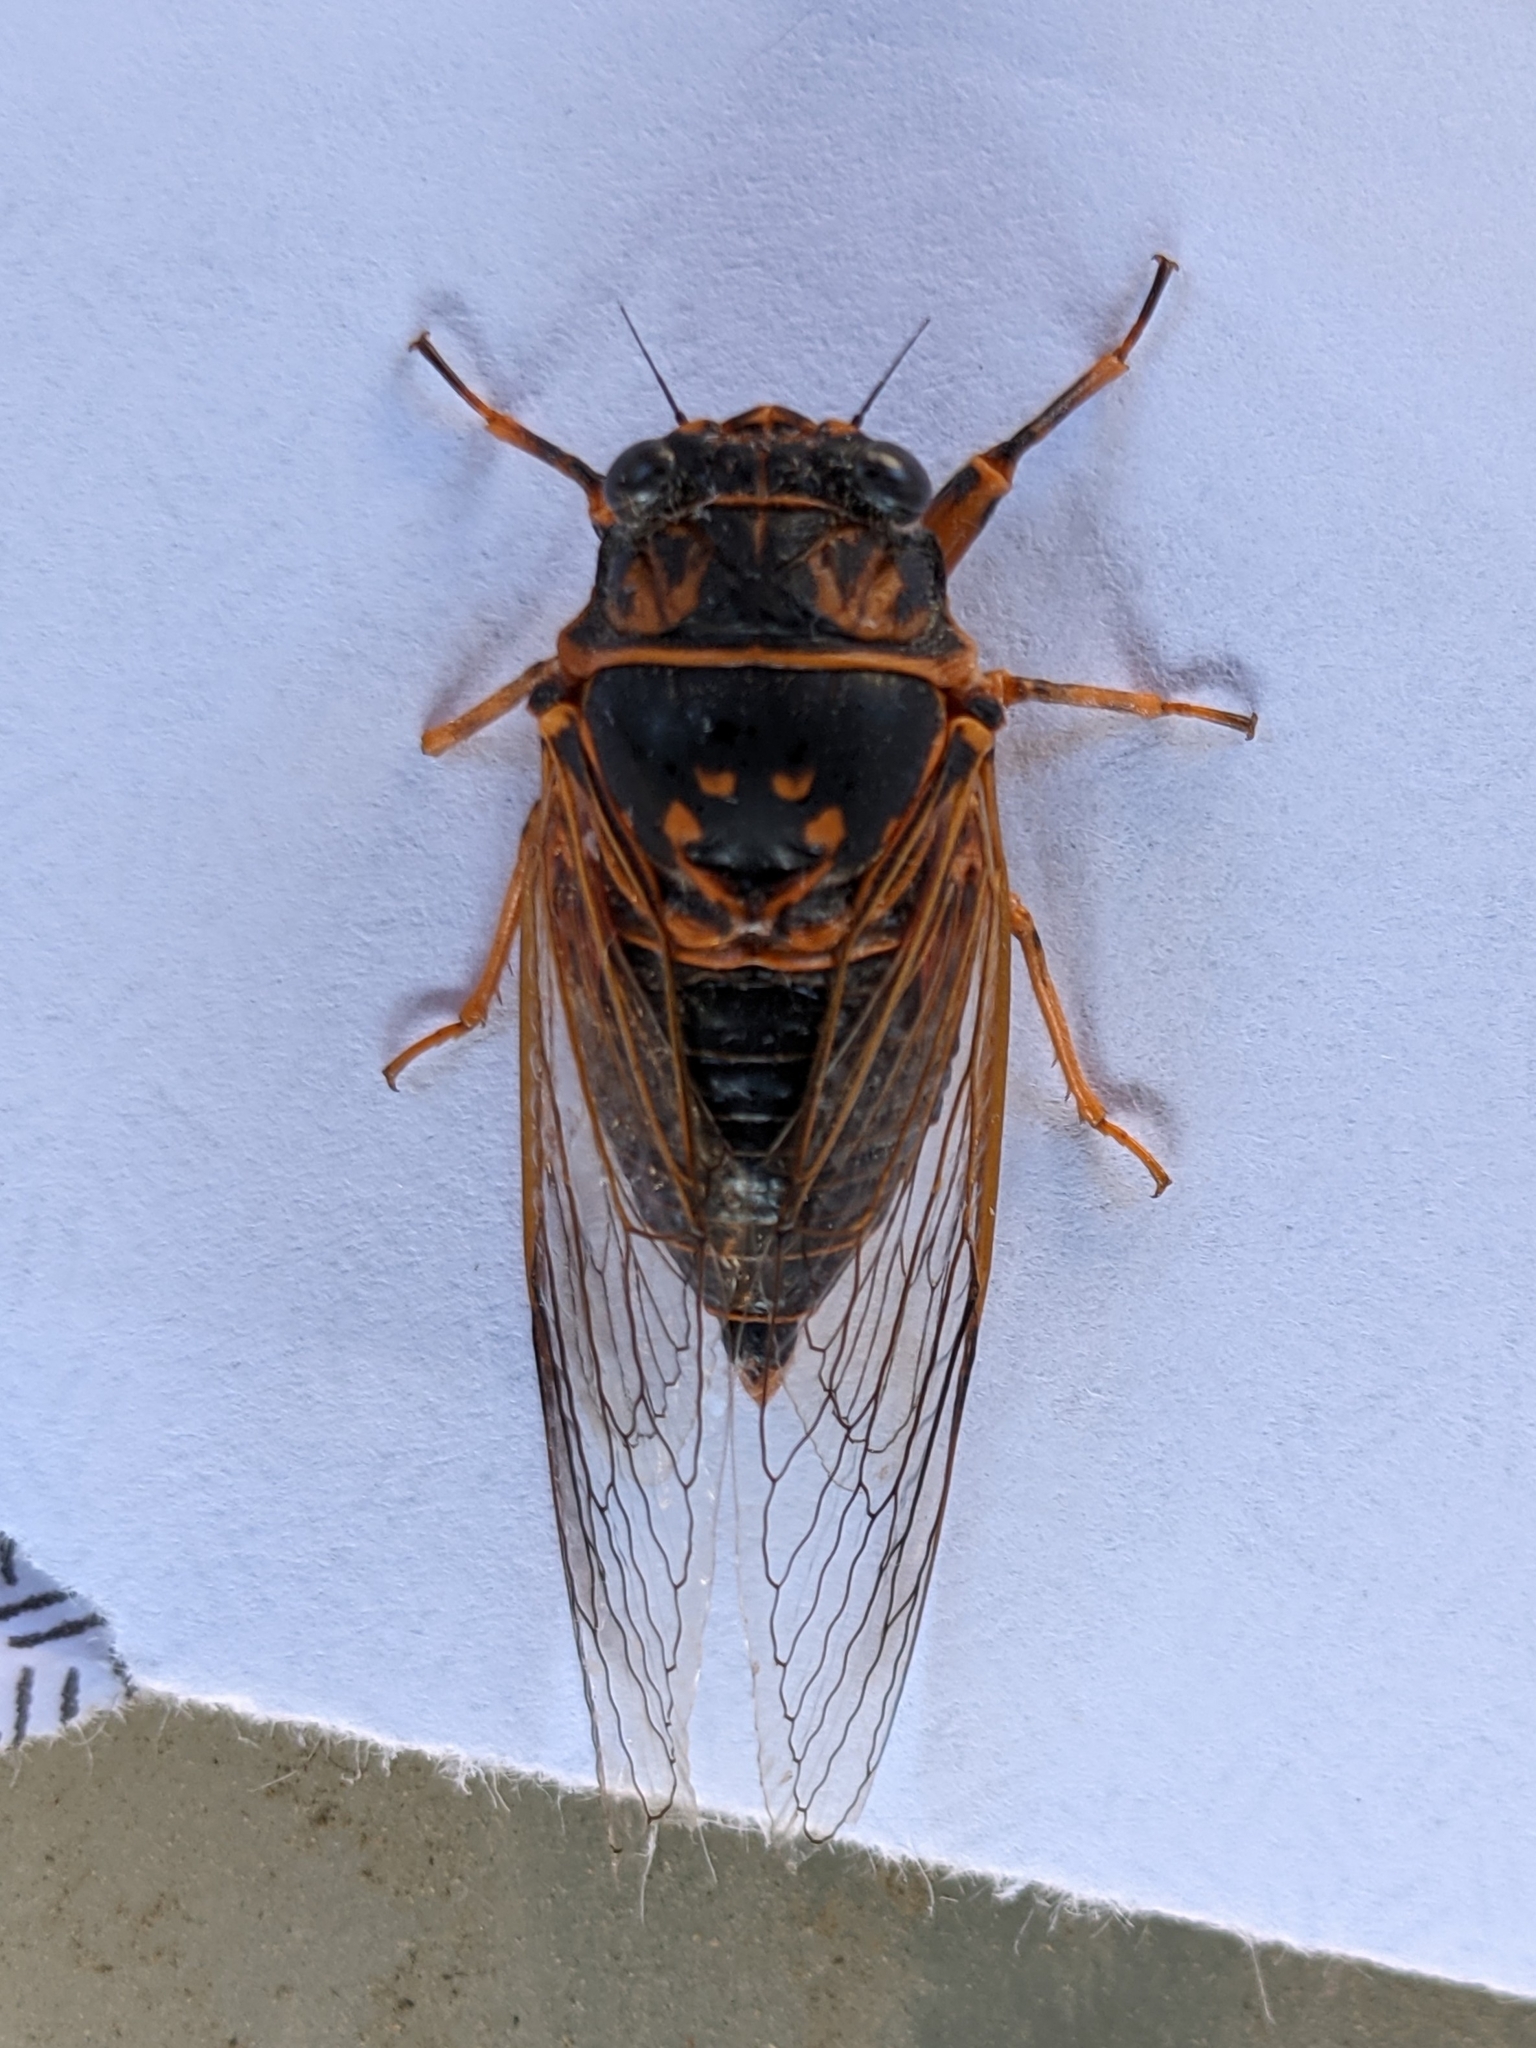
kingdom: Animalia
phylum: Arthropoda
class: Insecta
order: Hemiptera
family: Cicadidae
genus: Okanagana
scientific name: Okanagana arboraria
